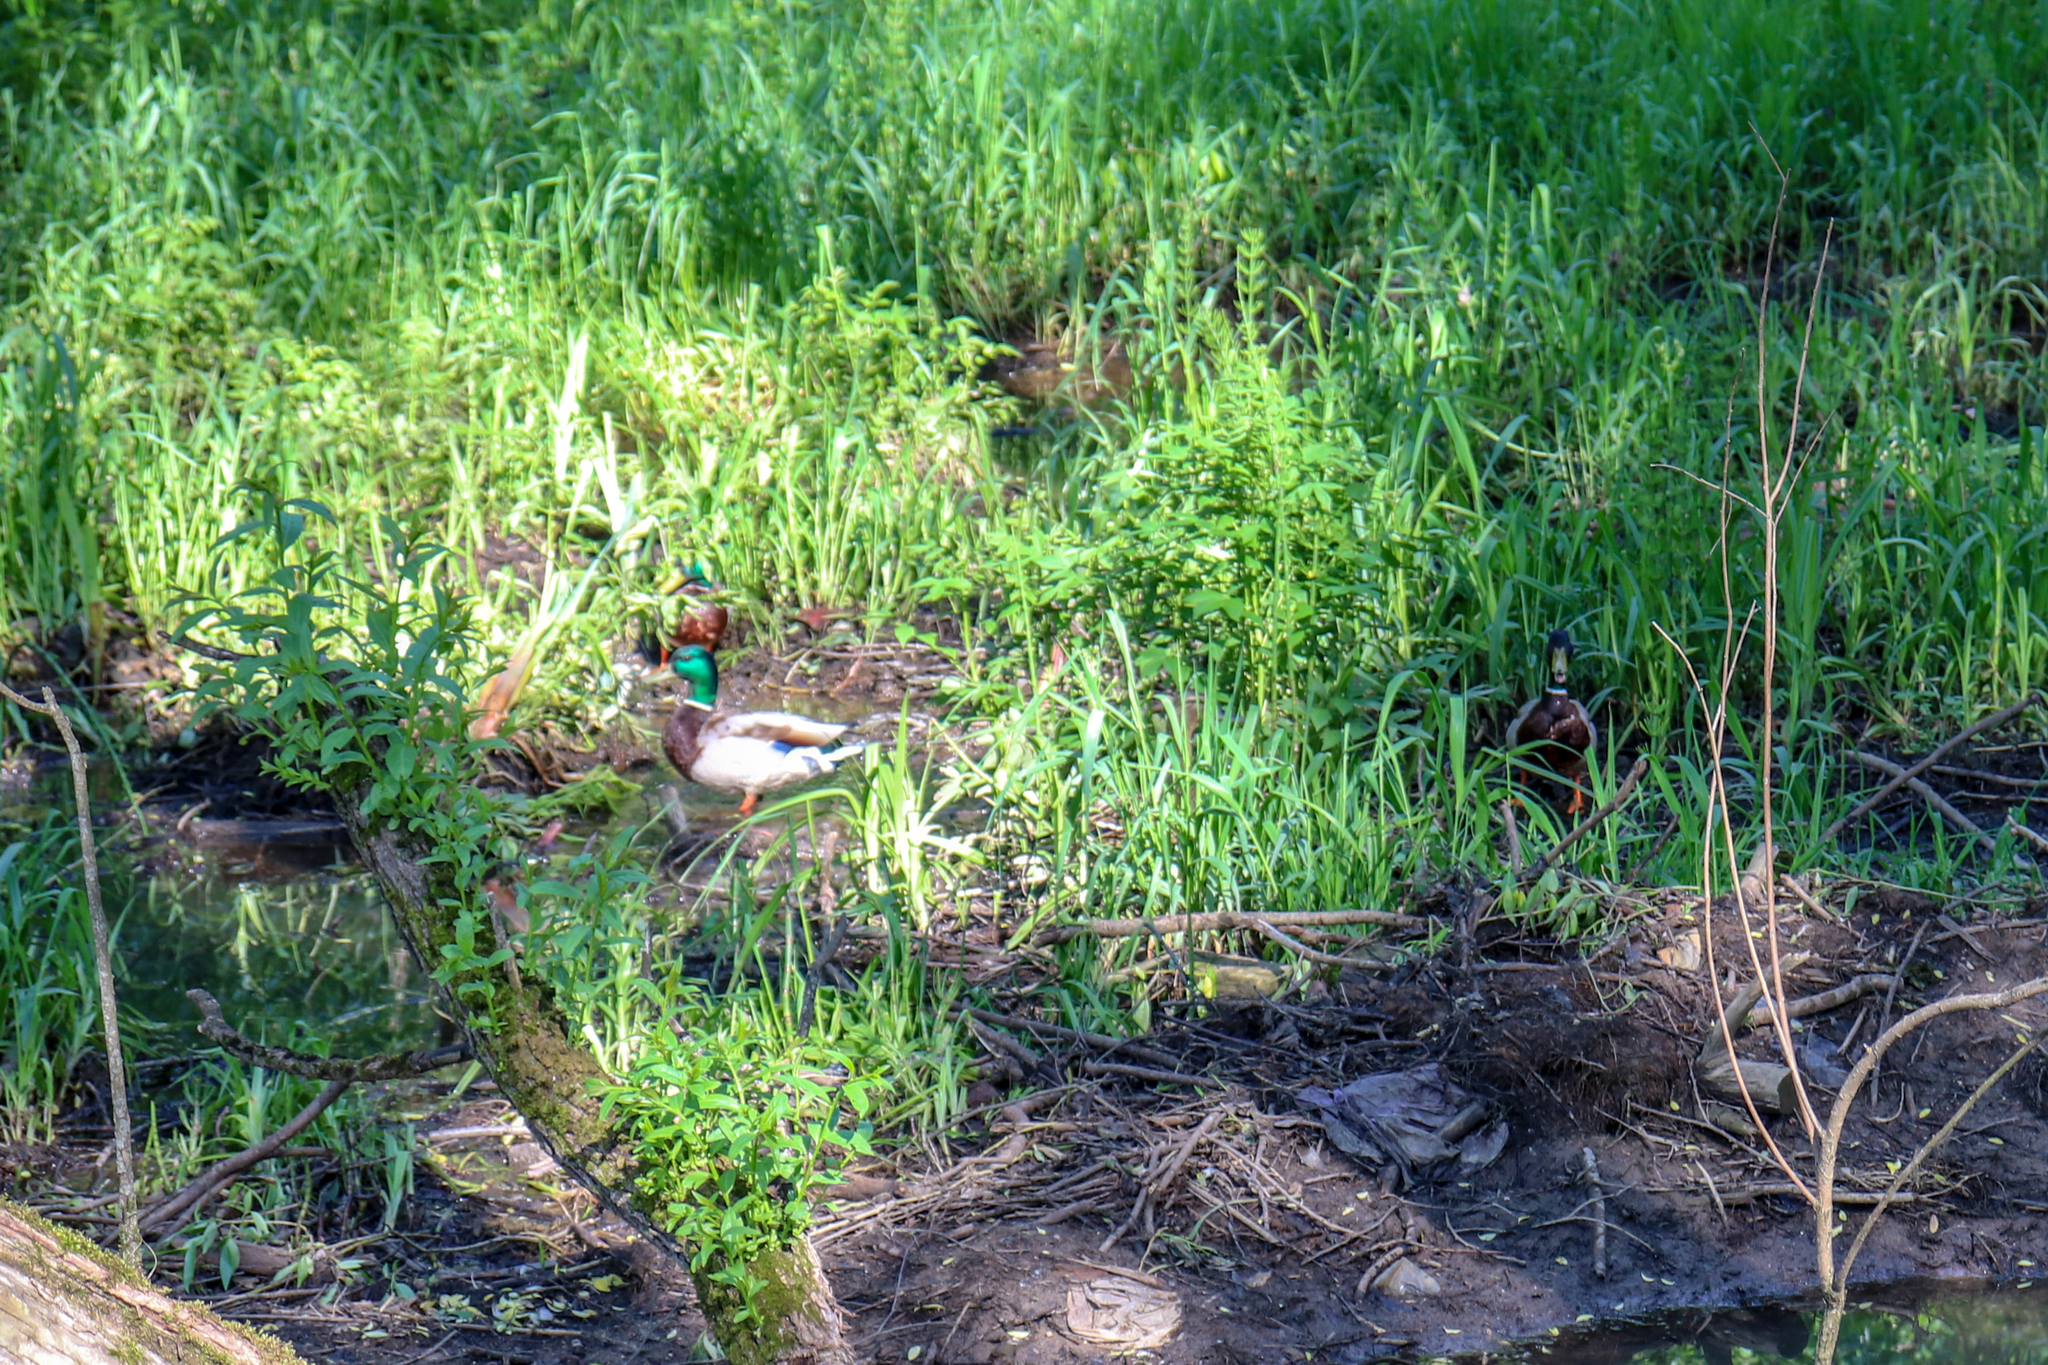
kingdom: Animalia
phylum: Chordata
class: Aves
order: Anseriformes
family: Anatidae
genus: Anas
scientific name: Anas platyrhynchos
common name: Mallard
